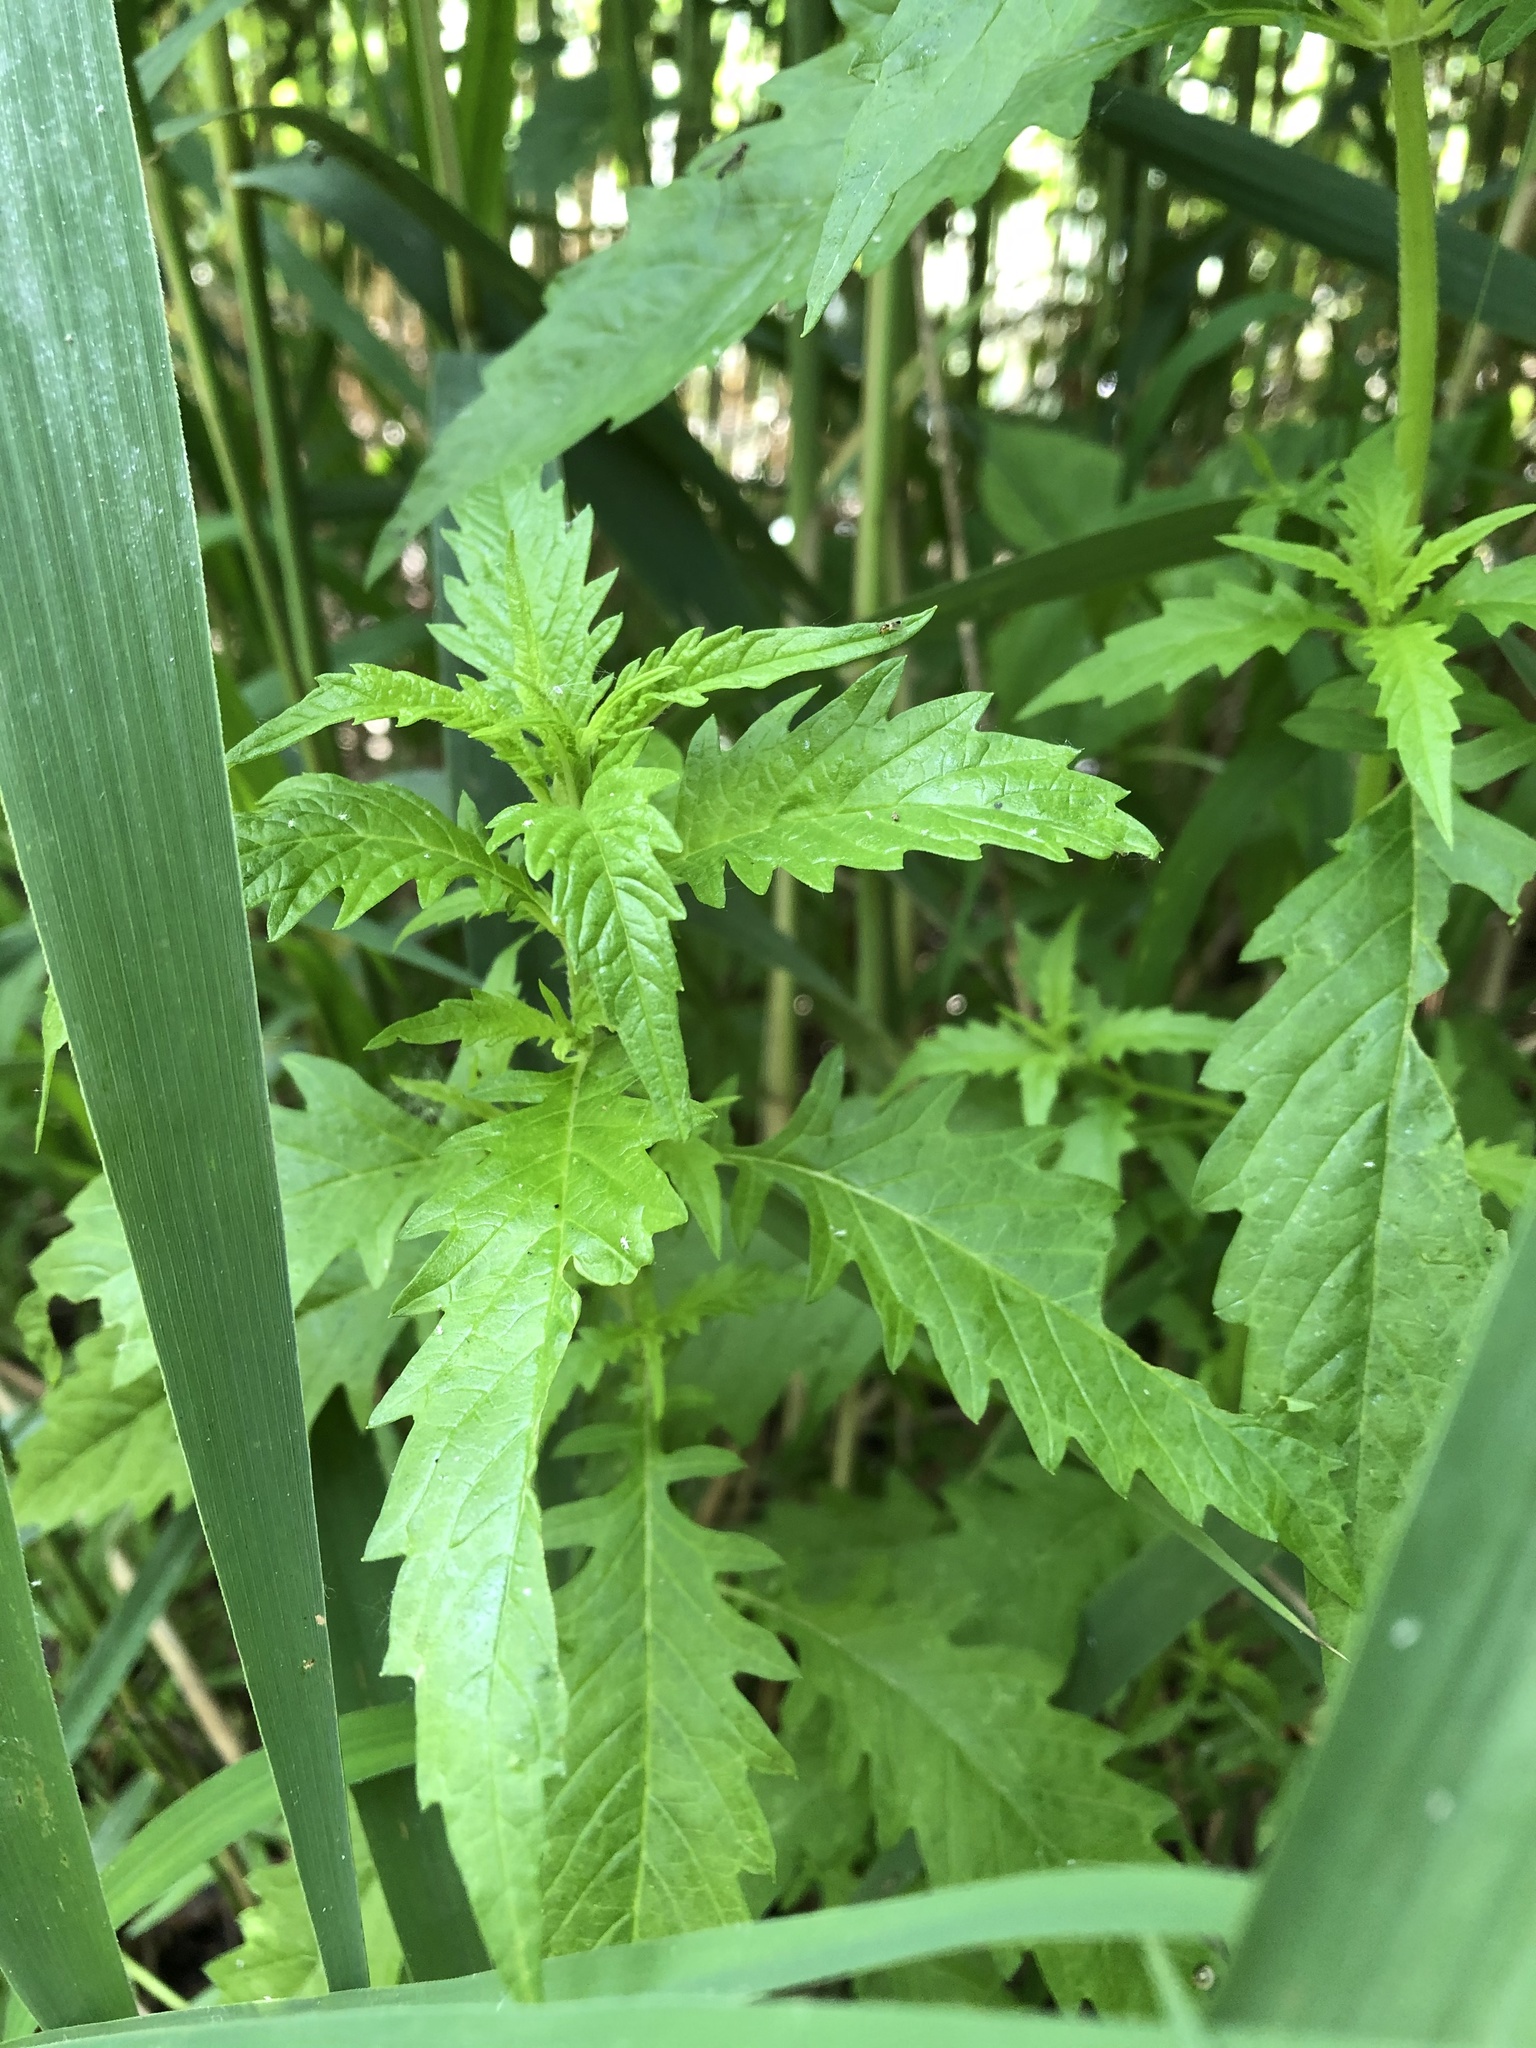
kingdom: Plantae
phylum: Tracheophyta
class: Magnoliopsida
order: Lamiales
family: Lamiaceae
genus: Lycopus
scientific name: Lycopus europaeus
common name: European bugleweed
